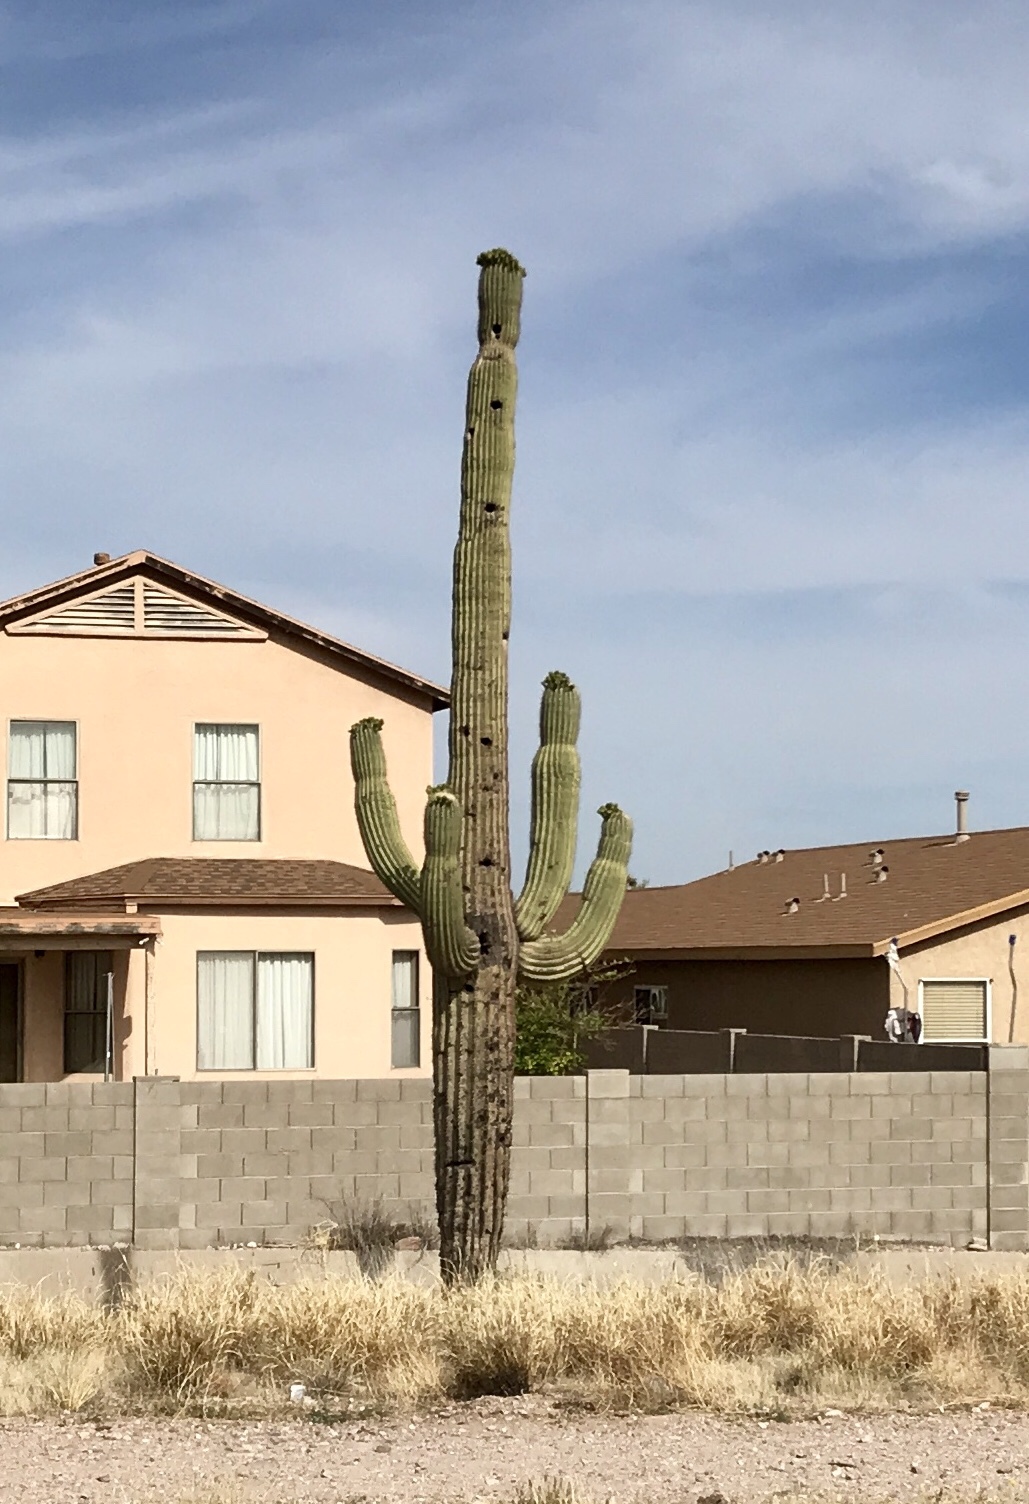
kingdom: Plantae
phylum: Tracheophyta
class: Magnoliopsida
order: Caryophyllales
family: Cactaceae
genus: Carnegiea
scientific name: Carnegiea gigantea
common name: Saguaro
